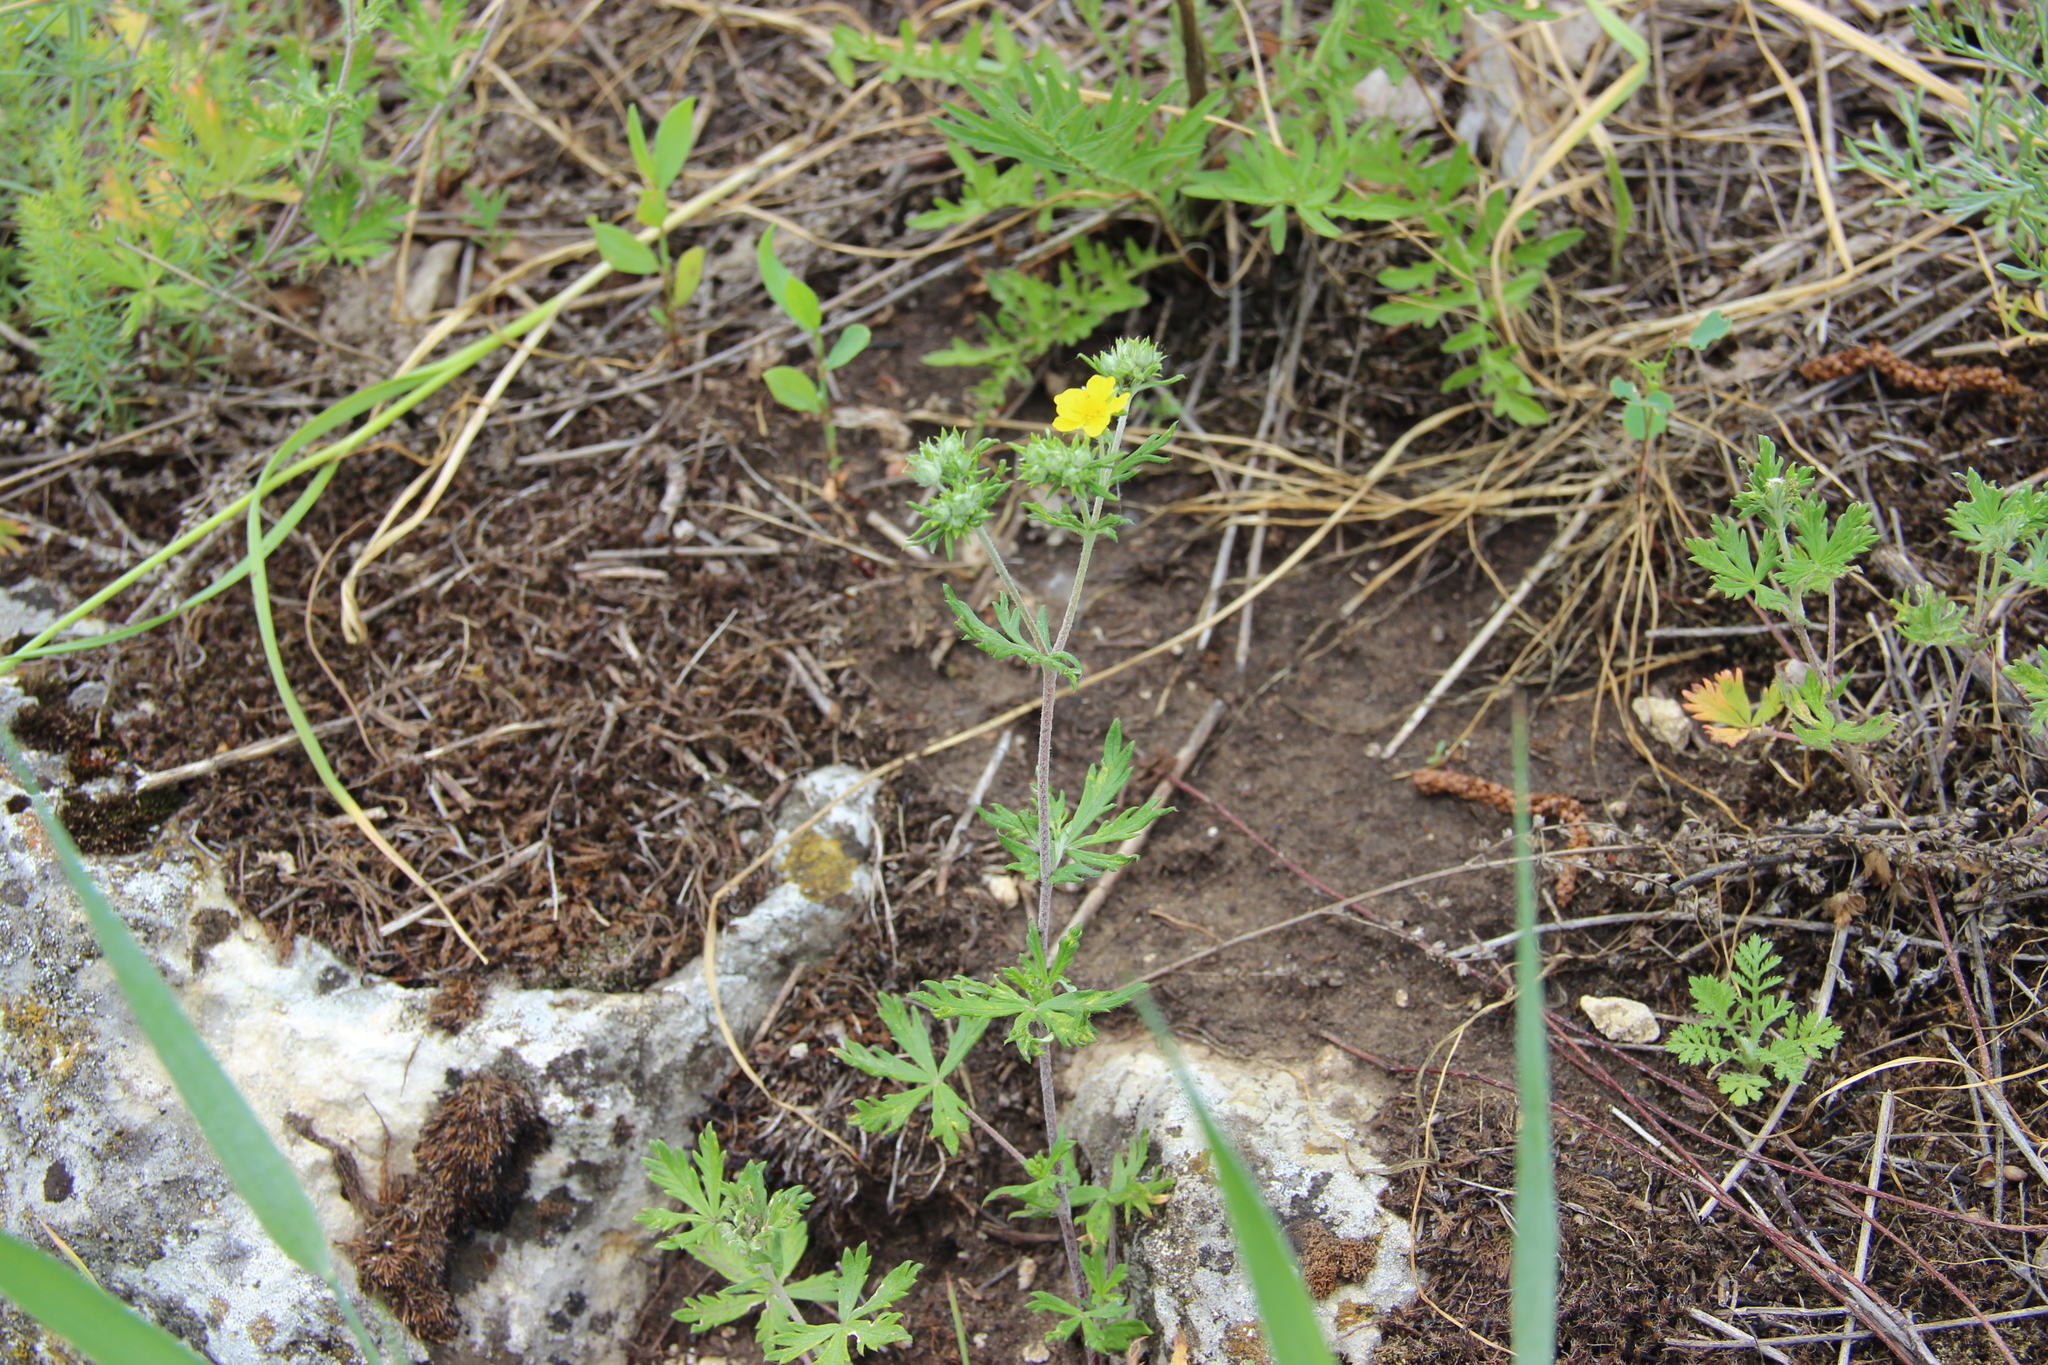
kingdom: Plantae
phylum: Tracheophyta
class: Magnoliopsida
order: Rosales
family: Rosaceae
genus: Potentilla
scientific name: Potentilla argentea
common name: Hoary cinquefoil
